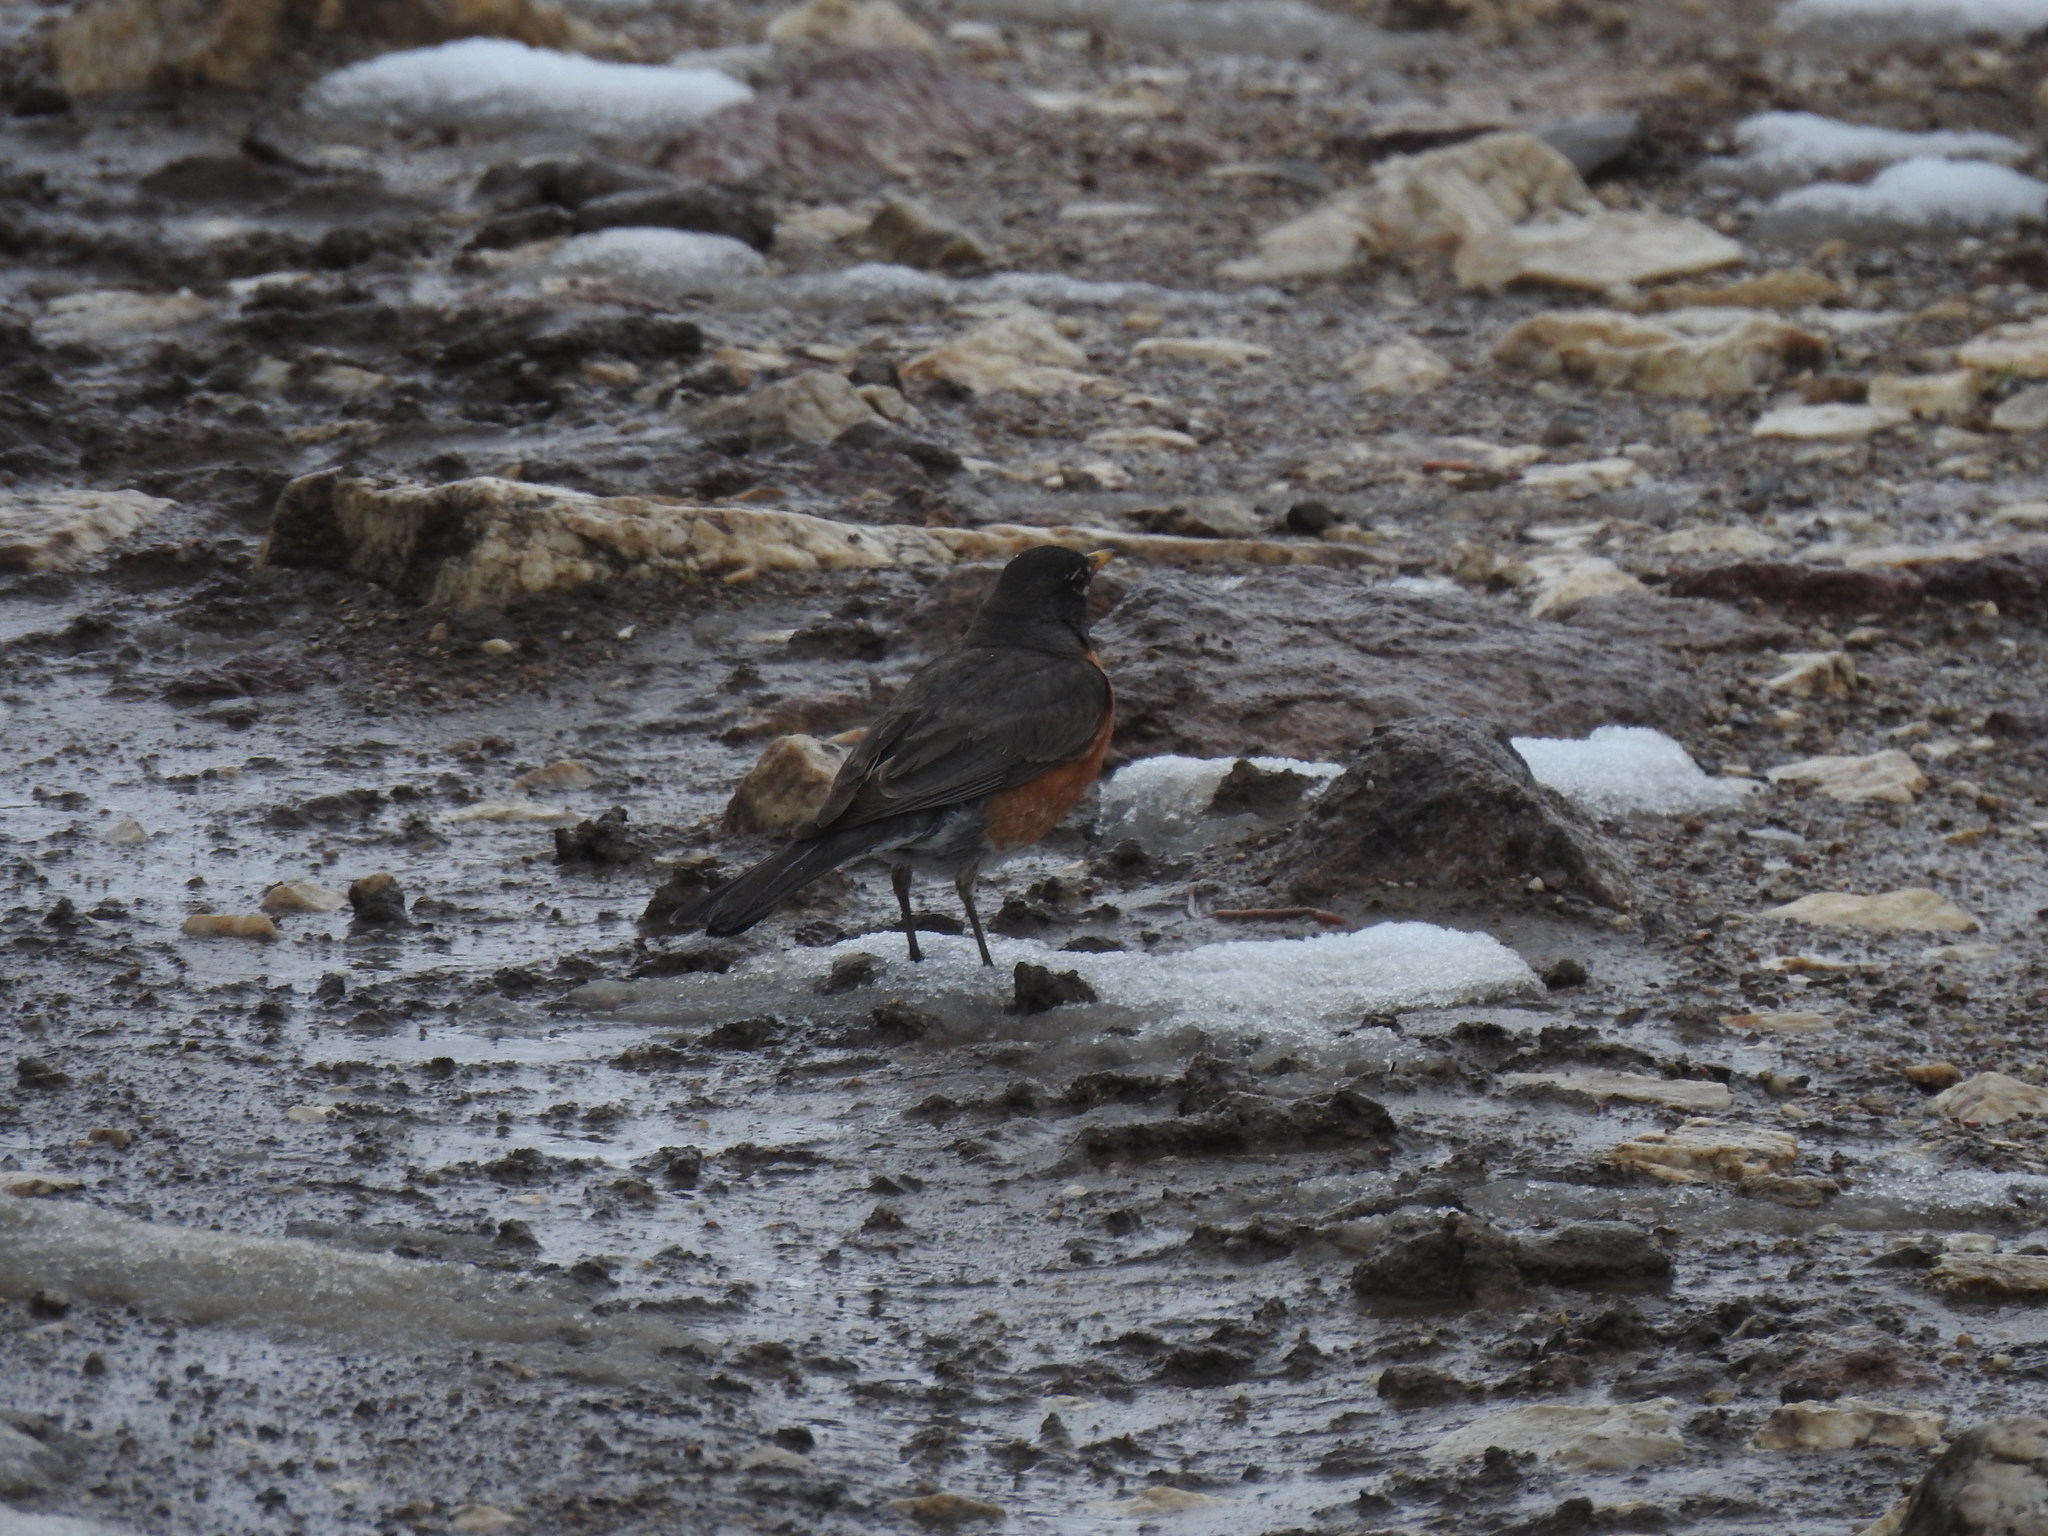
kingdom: Animalia
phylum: Chordata
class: Aves
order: Passeriformes
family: Turdidae
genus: Turdus
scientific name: Turdus migratorius
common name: American robin
